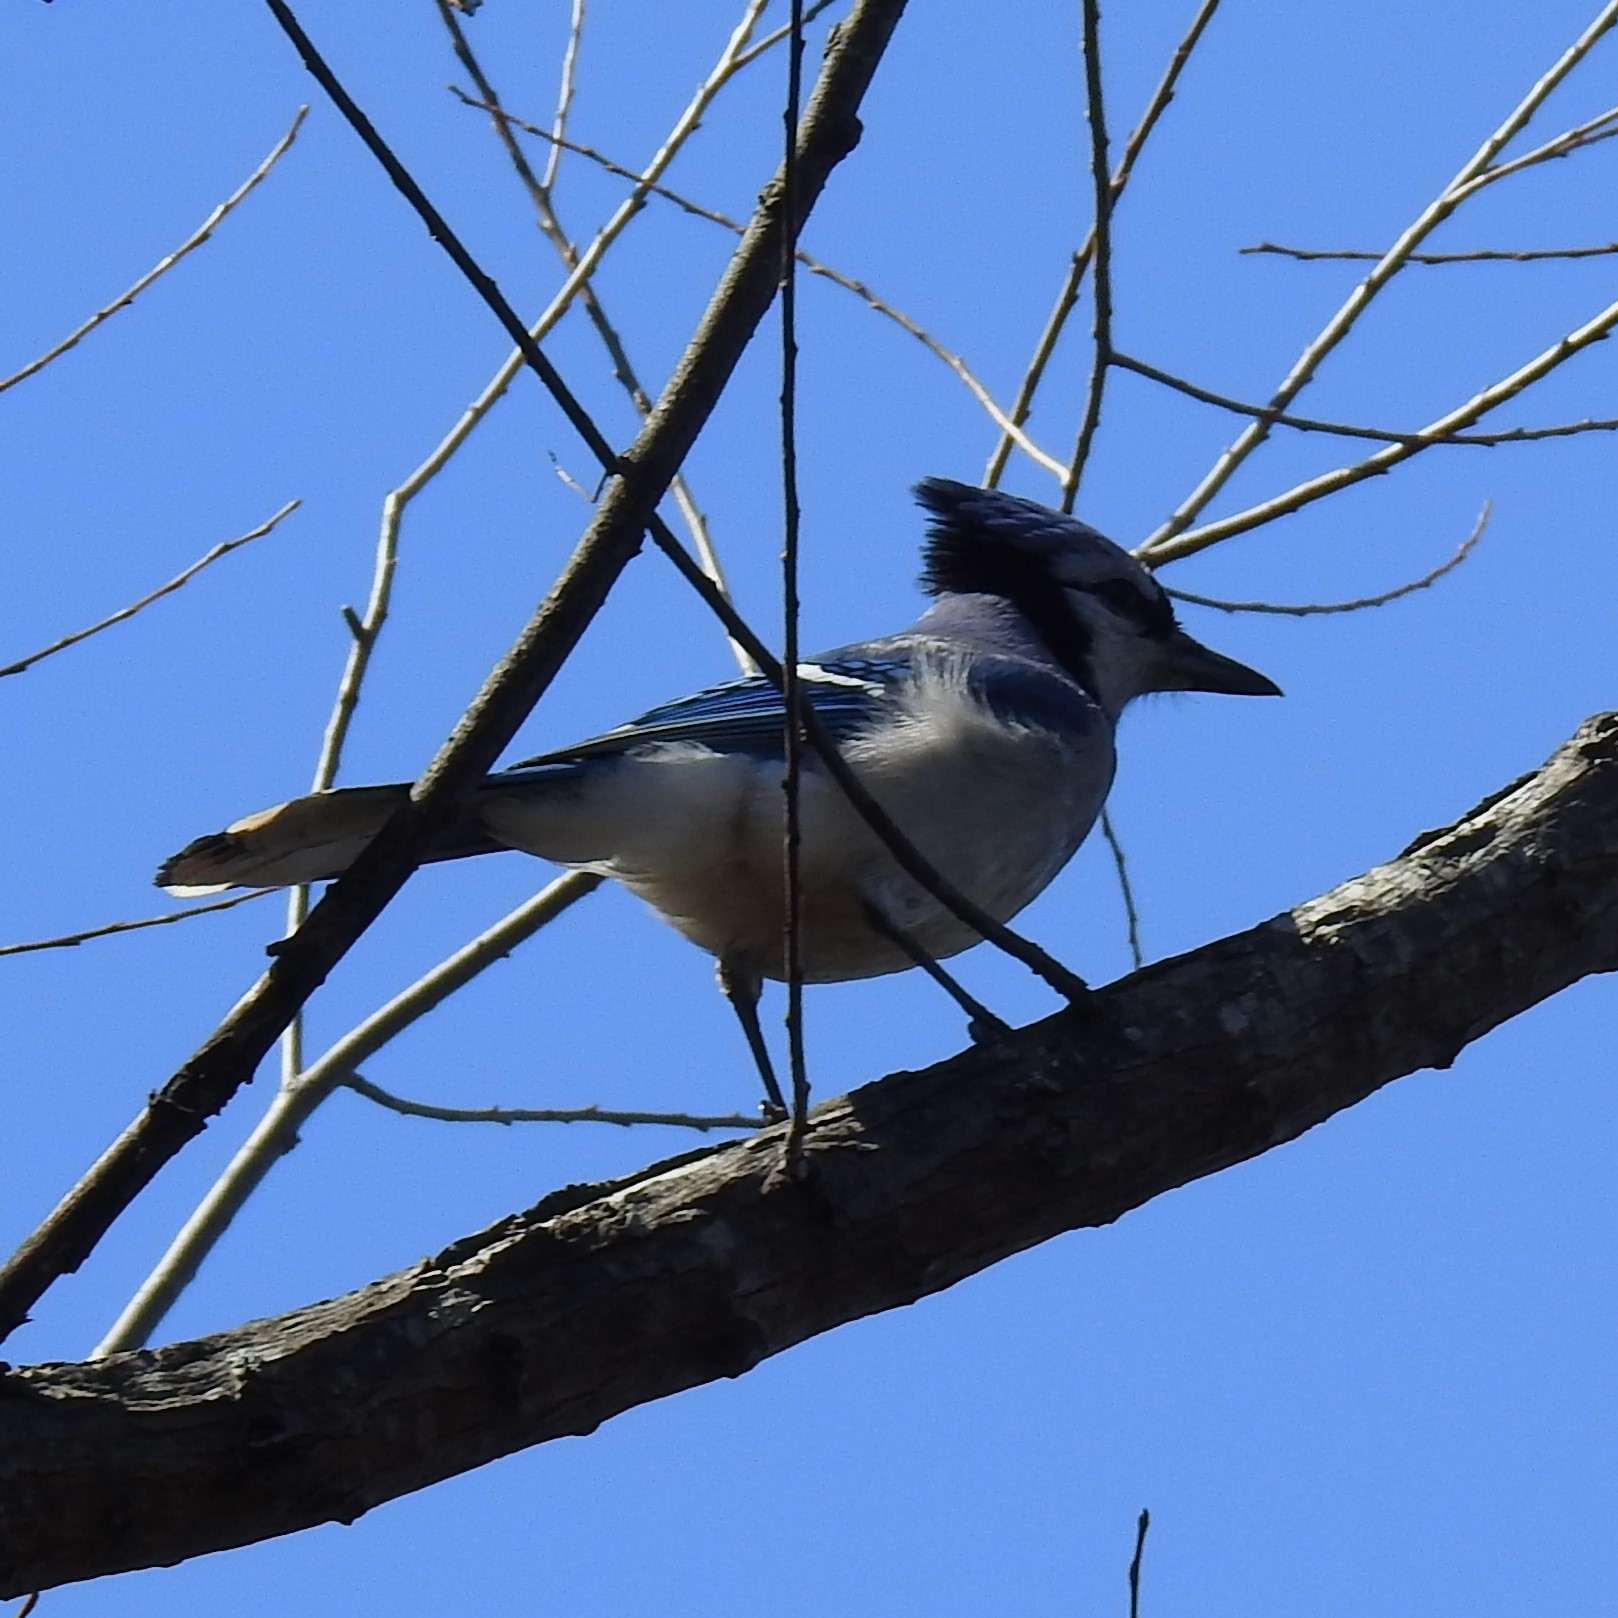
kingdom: Animalia
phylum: Chordata
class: Aves
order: Passeriformes
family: Corvidae
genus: Cyanocitta
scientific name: Cyanocitta cristata
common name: Blue jay
